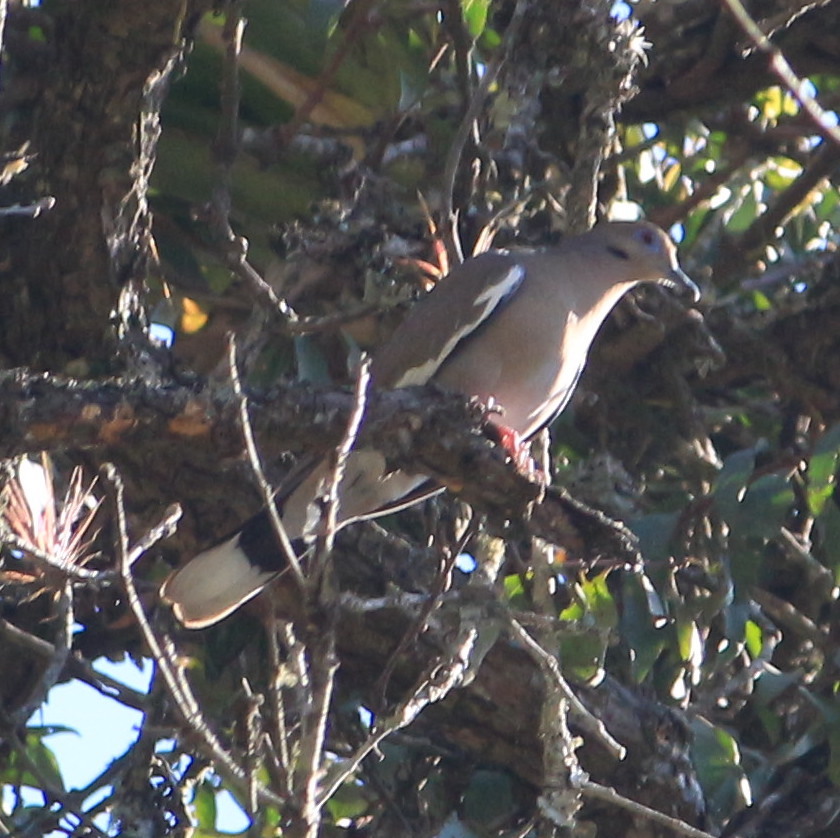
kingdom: Animalia
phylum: Chordata
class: Aves
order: Columbiformes
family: Columbidae
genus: Zenaida
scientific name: Zenaida asiatica
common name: White-winged dove
